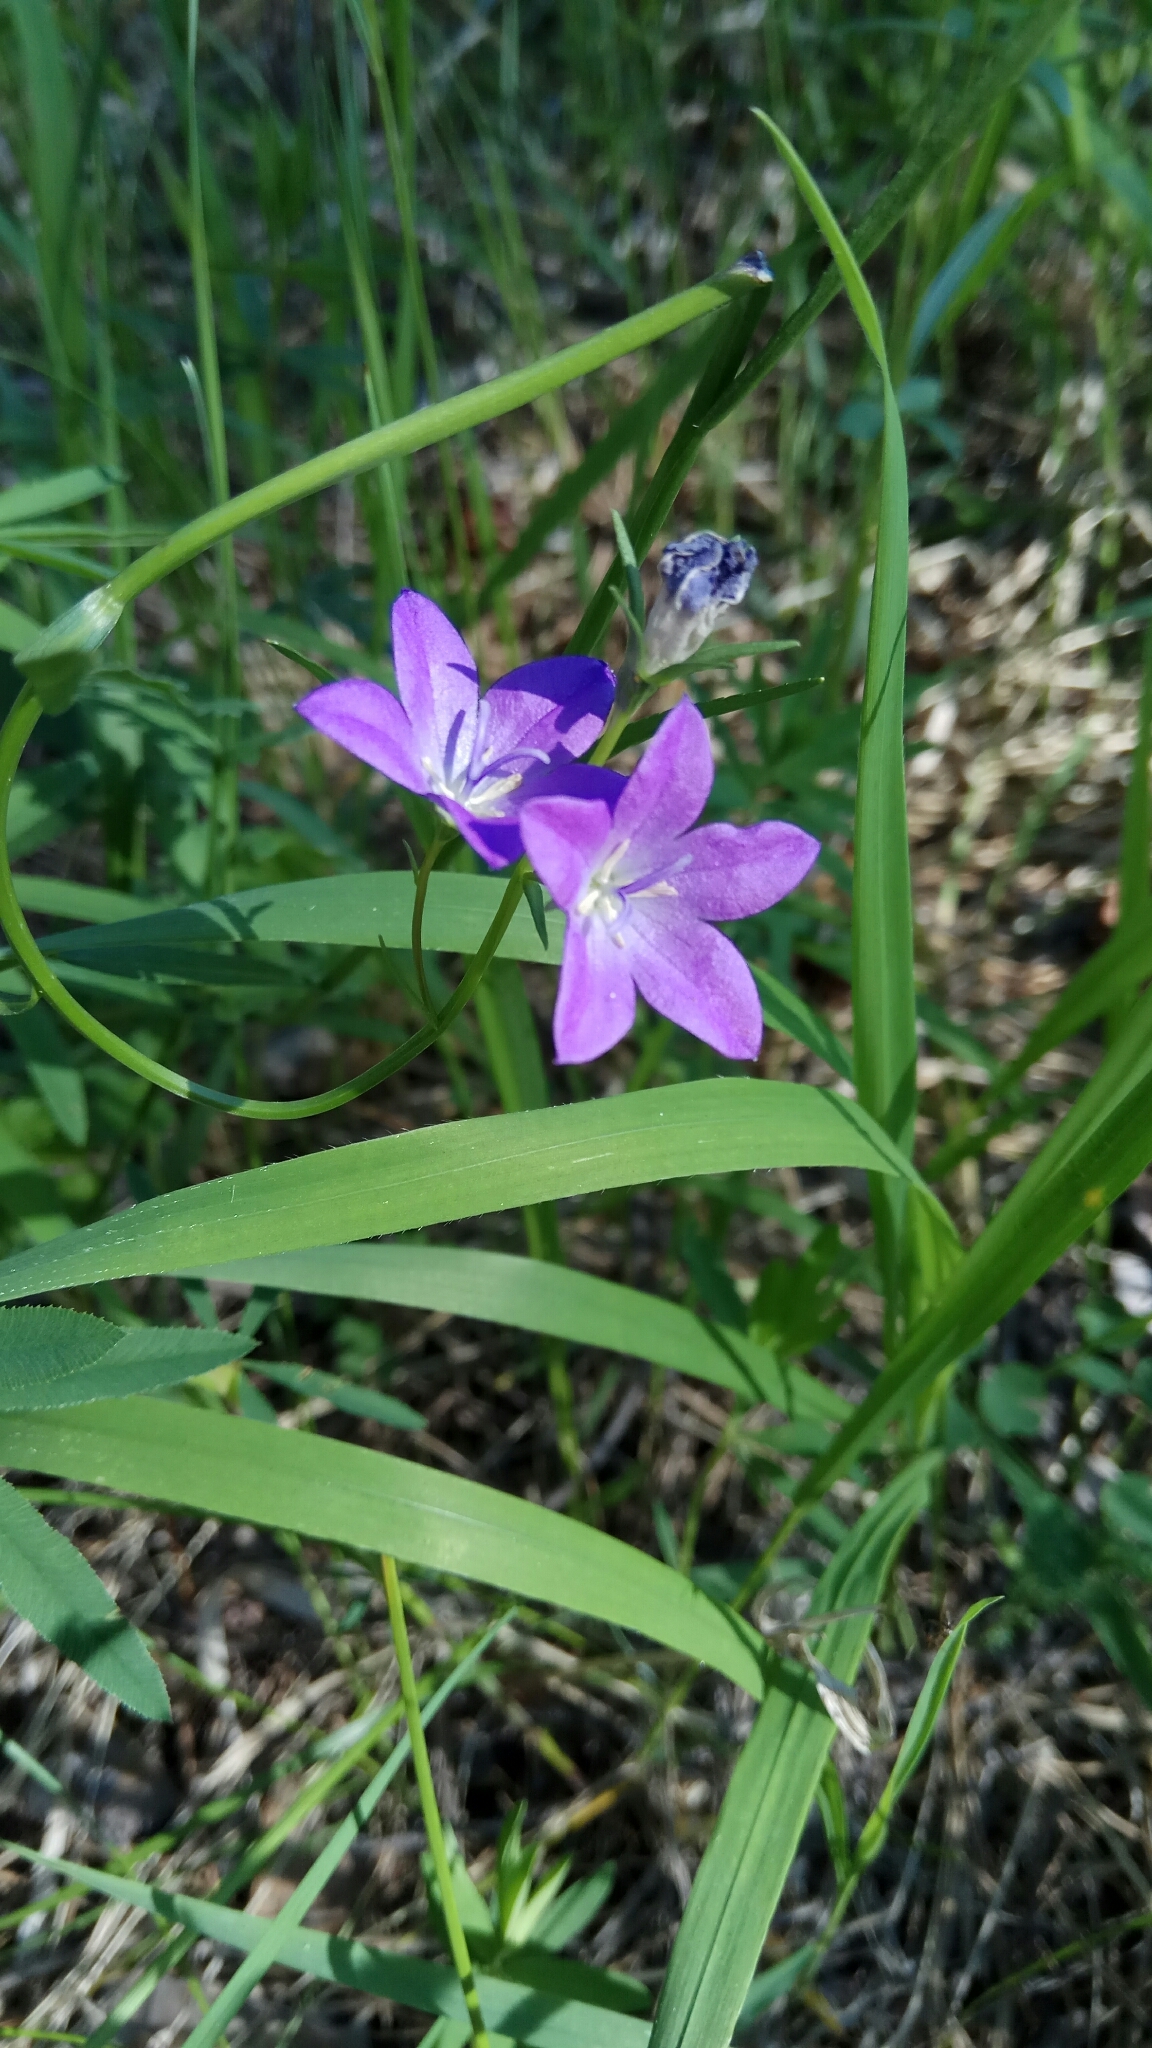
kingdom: Plantae
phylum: Tracheophyta
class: Magnoliopsida
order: Asterales
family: Campanulaceae
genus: Campanula
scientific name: Campanula stevenii
